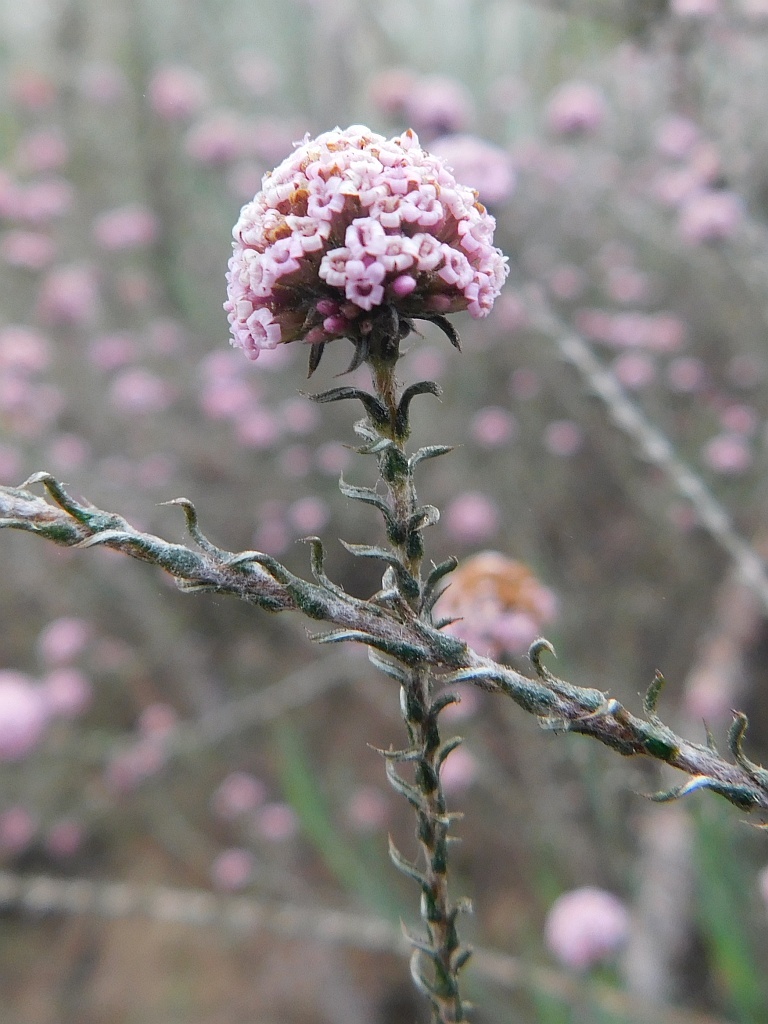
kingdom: Plantae
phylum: Tracheophyta
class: Magnoliopsida
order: Asterales
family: Asteraceae
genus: Stoebe
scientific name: Stoebe capitata
